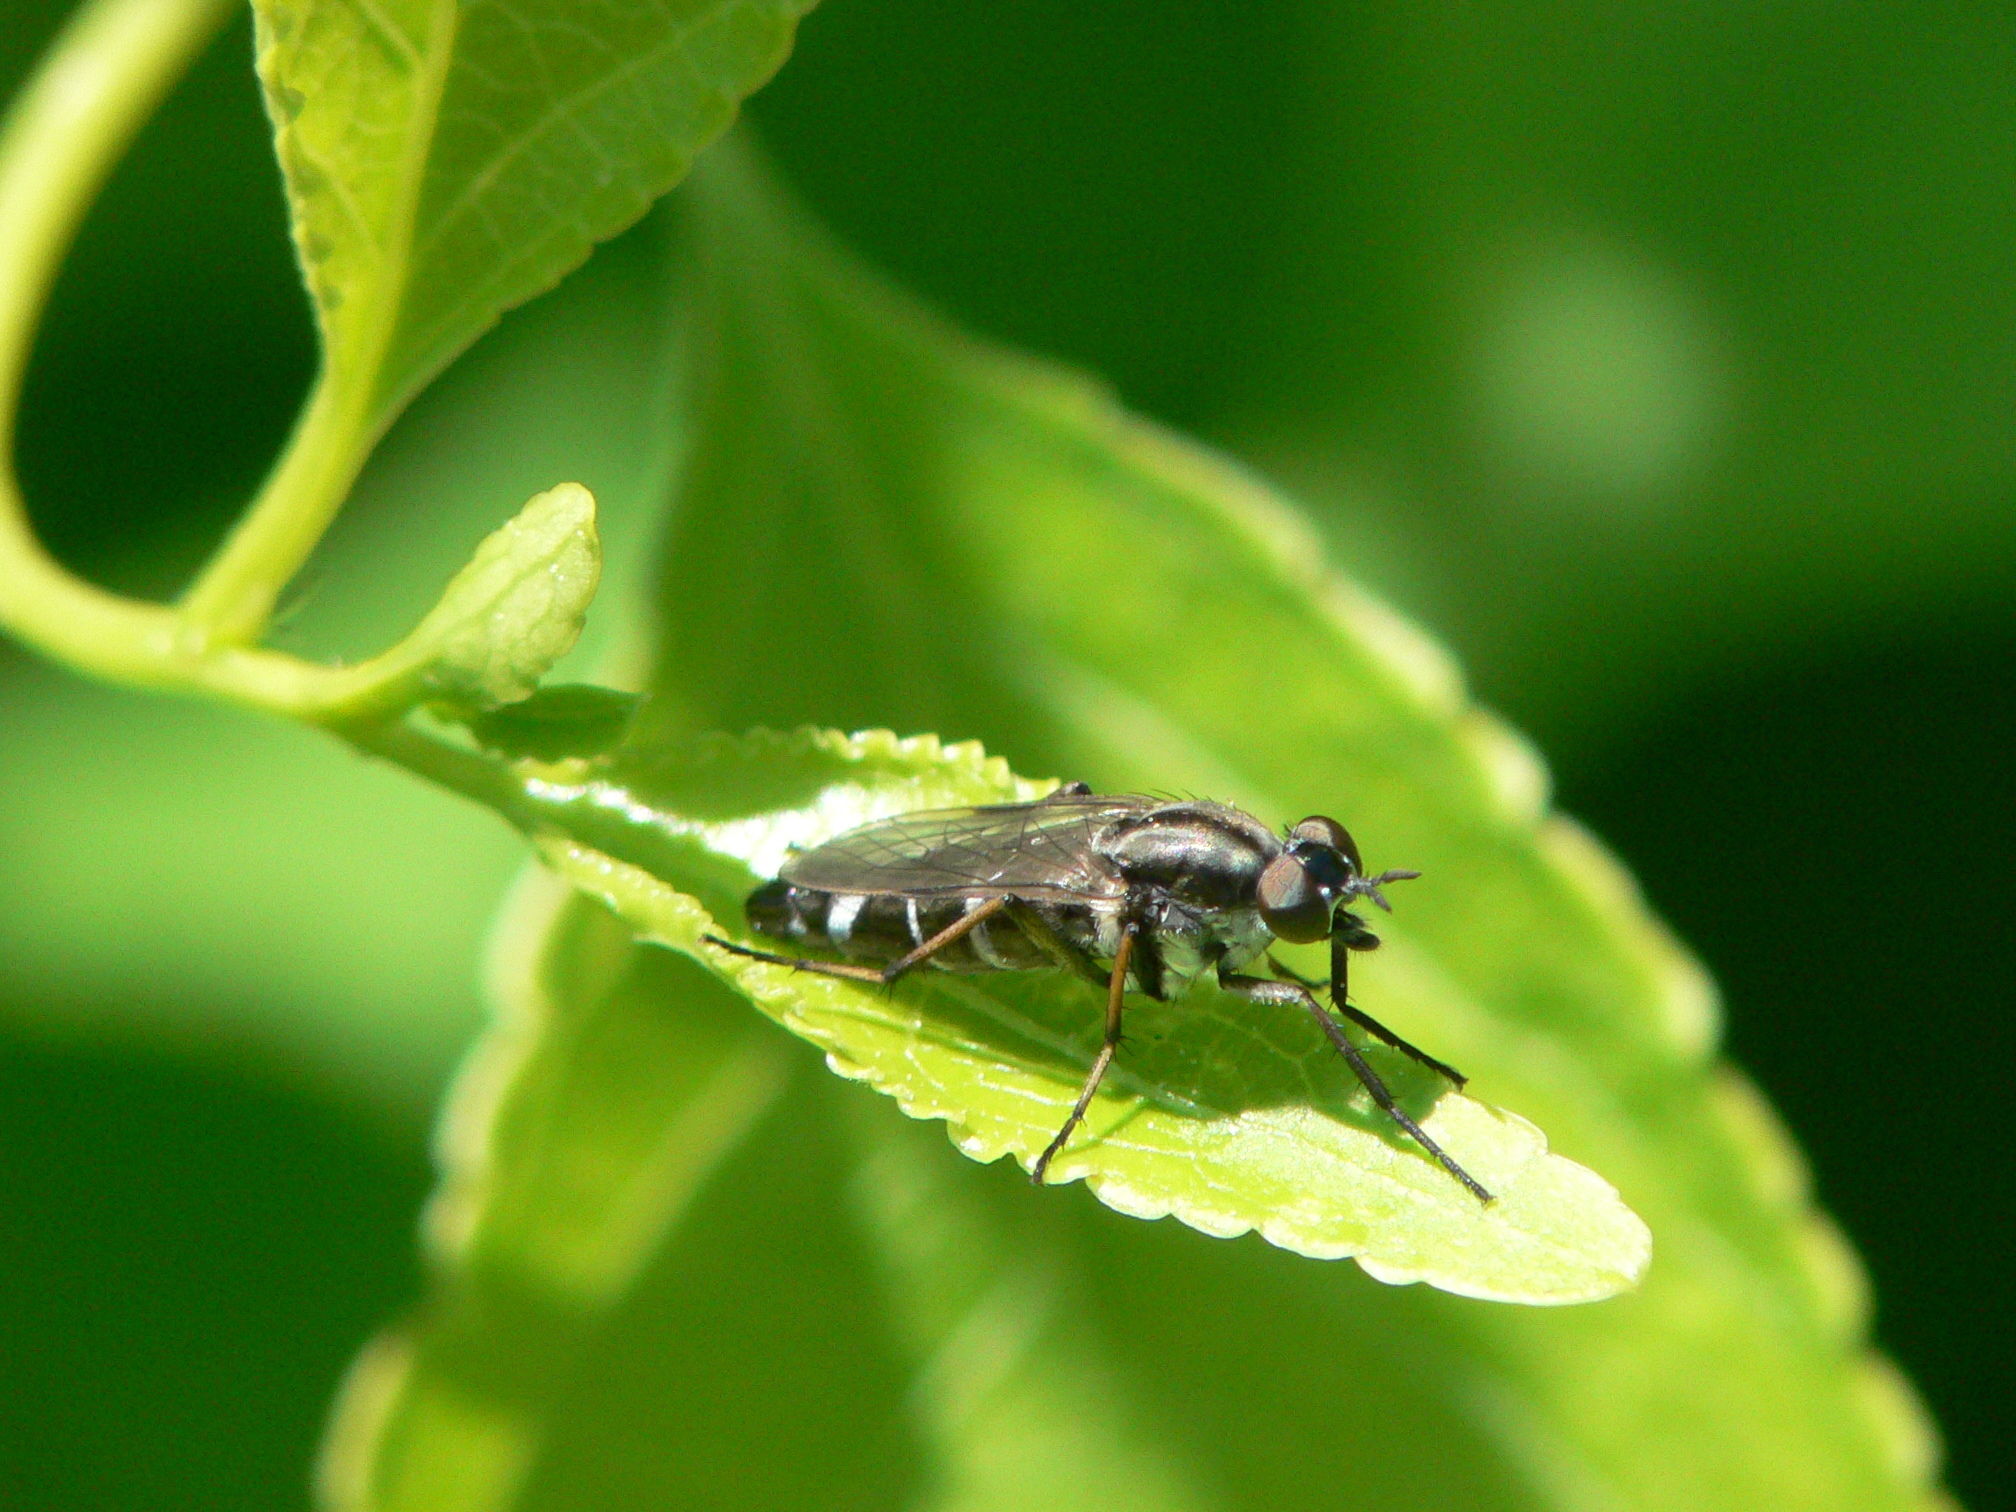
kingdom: Animalia
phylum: Arthropoda
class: Insecta
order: Diptera
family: Therevidae
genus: Ozodiceromyia
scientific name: Ozodiceromyia argentata
